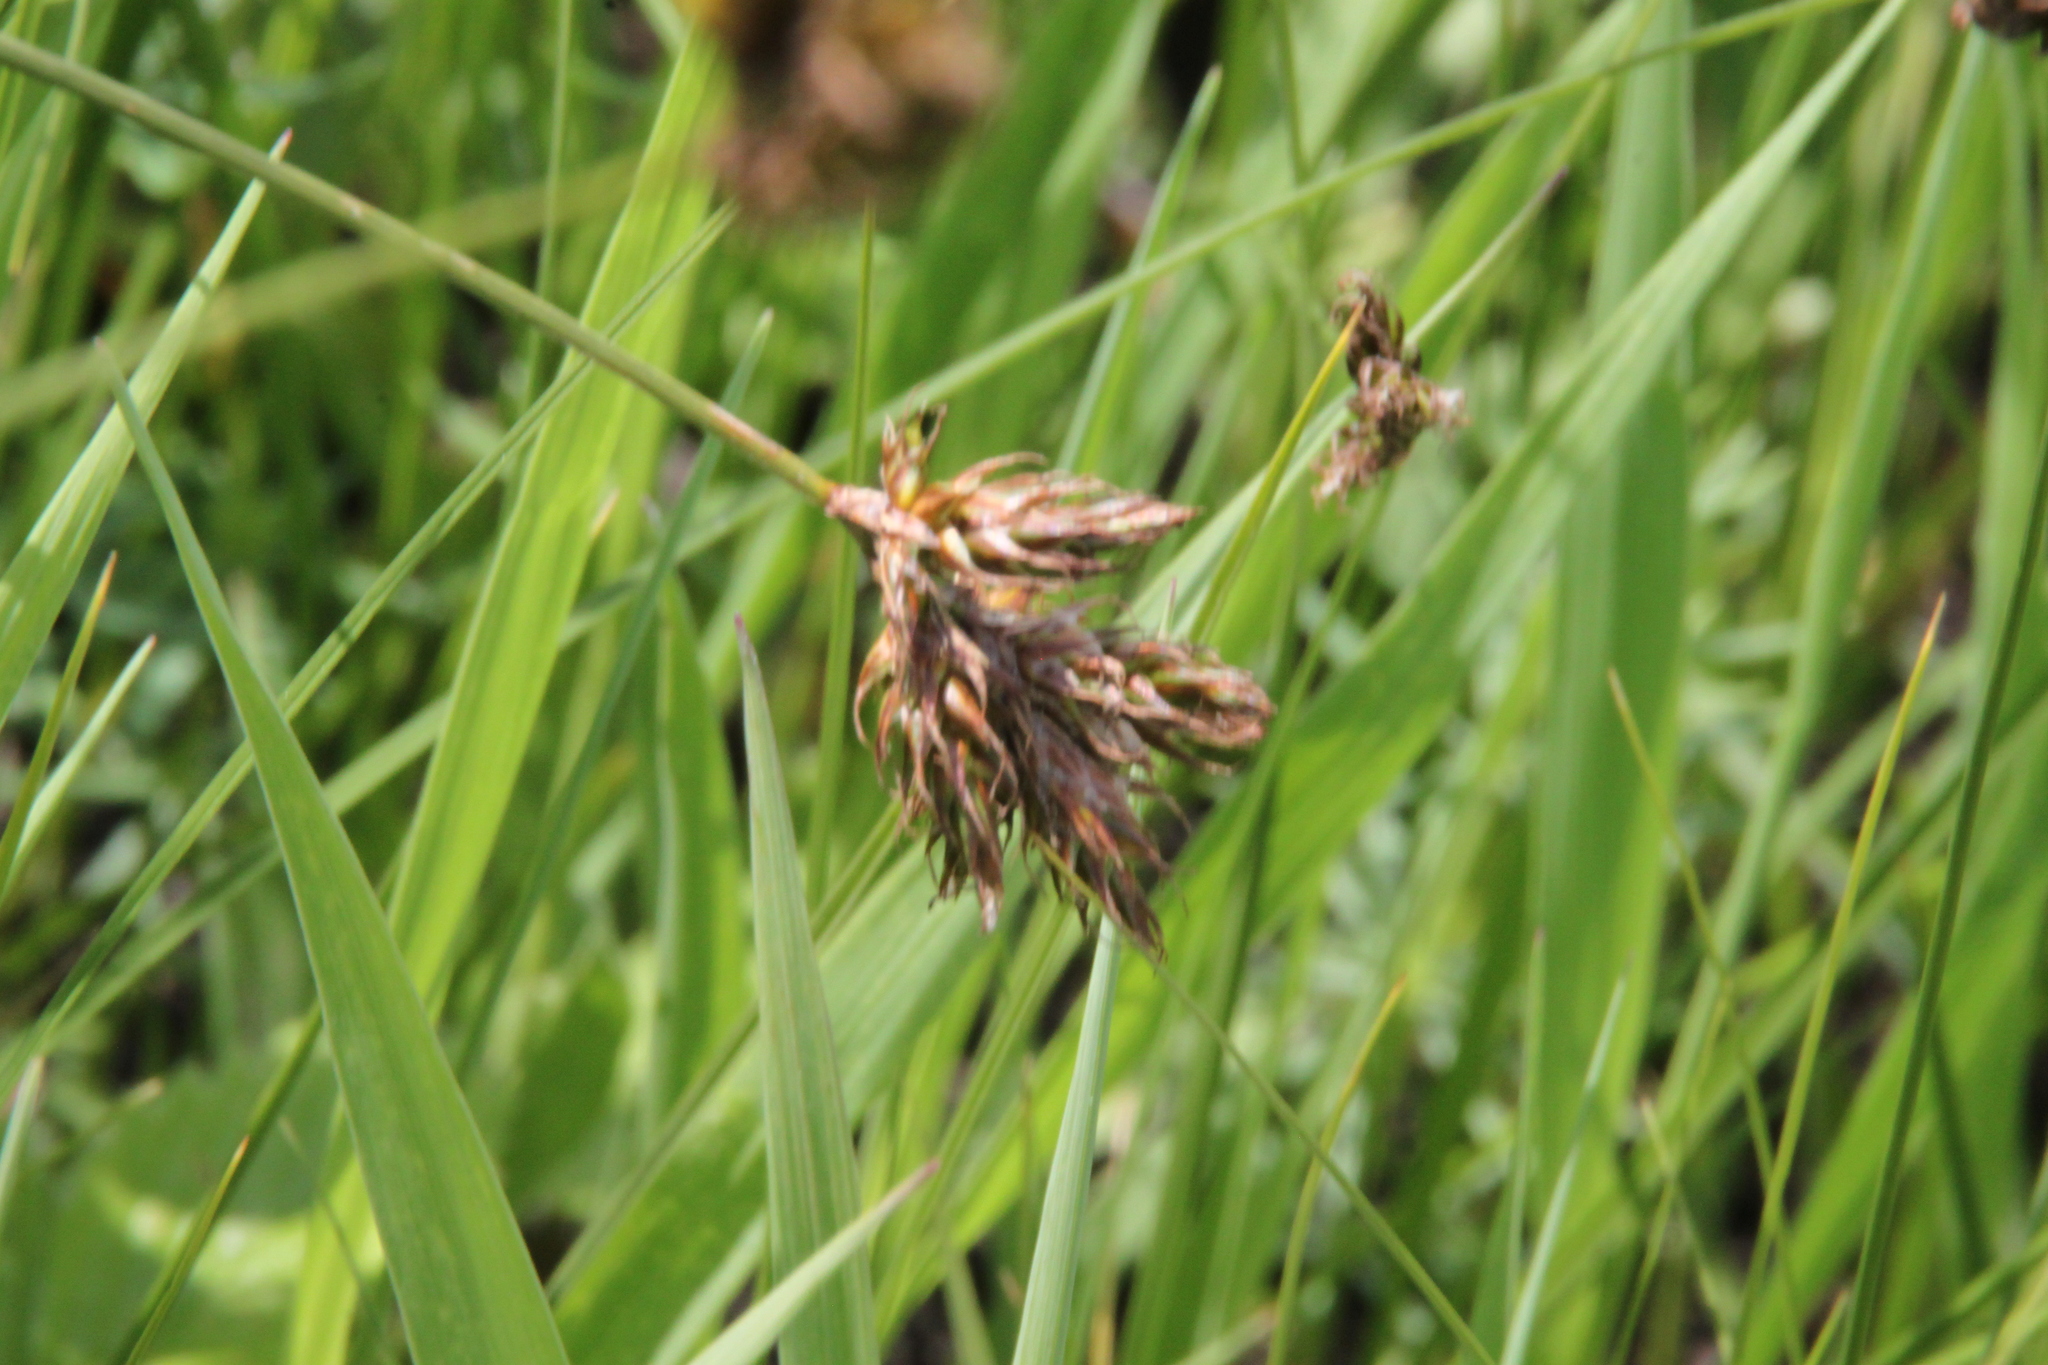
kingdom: Plantae
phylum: Tracheophyta
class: Liliopsida
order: Poales
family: Cyperaceae
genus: Carex
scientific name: Carex praecox
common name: Early sedge
